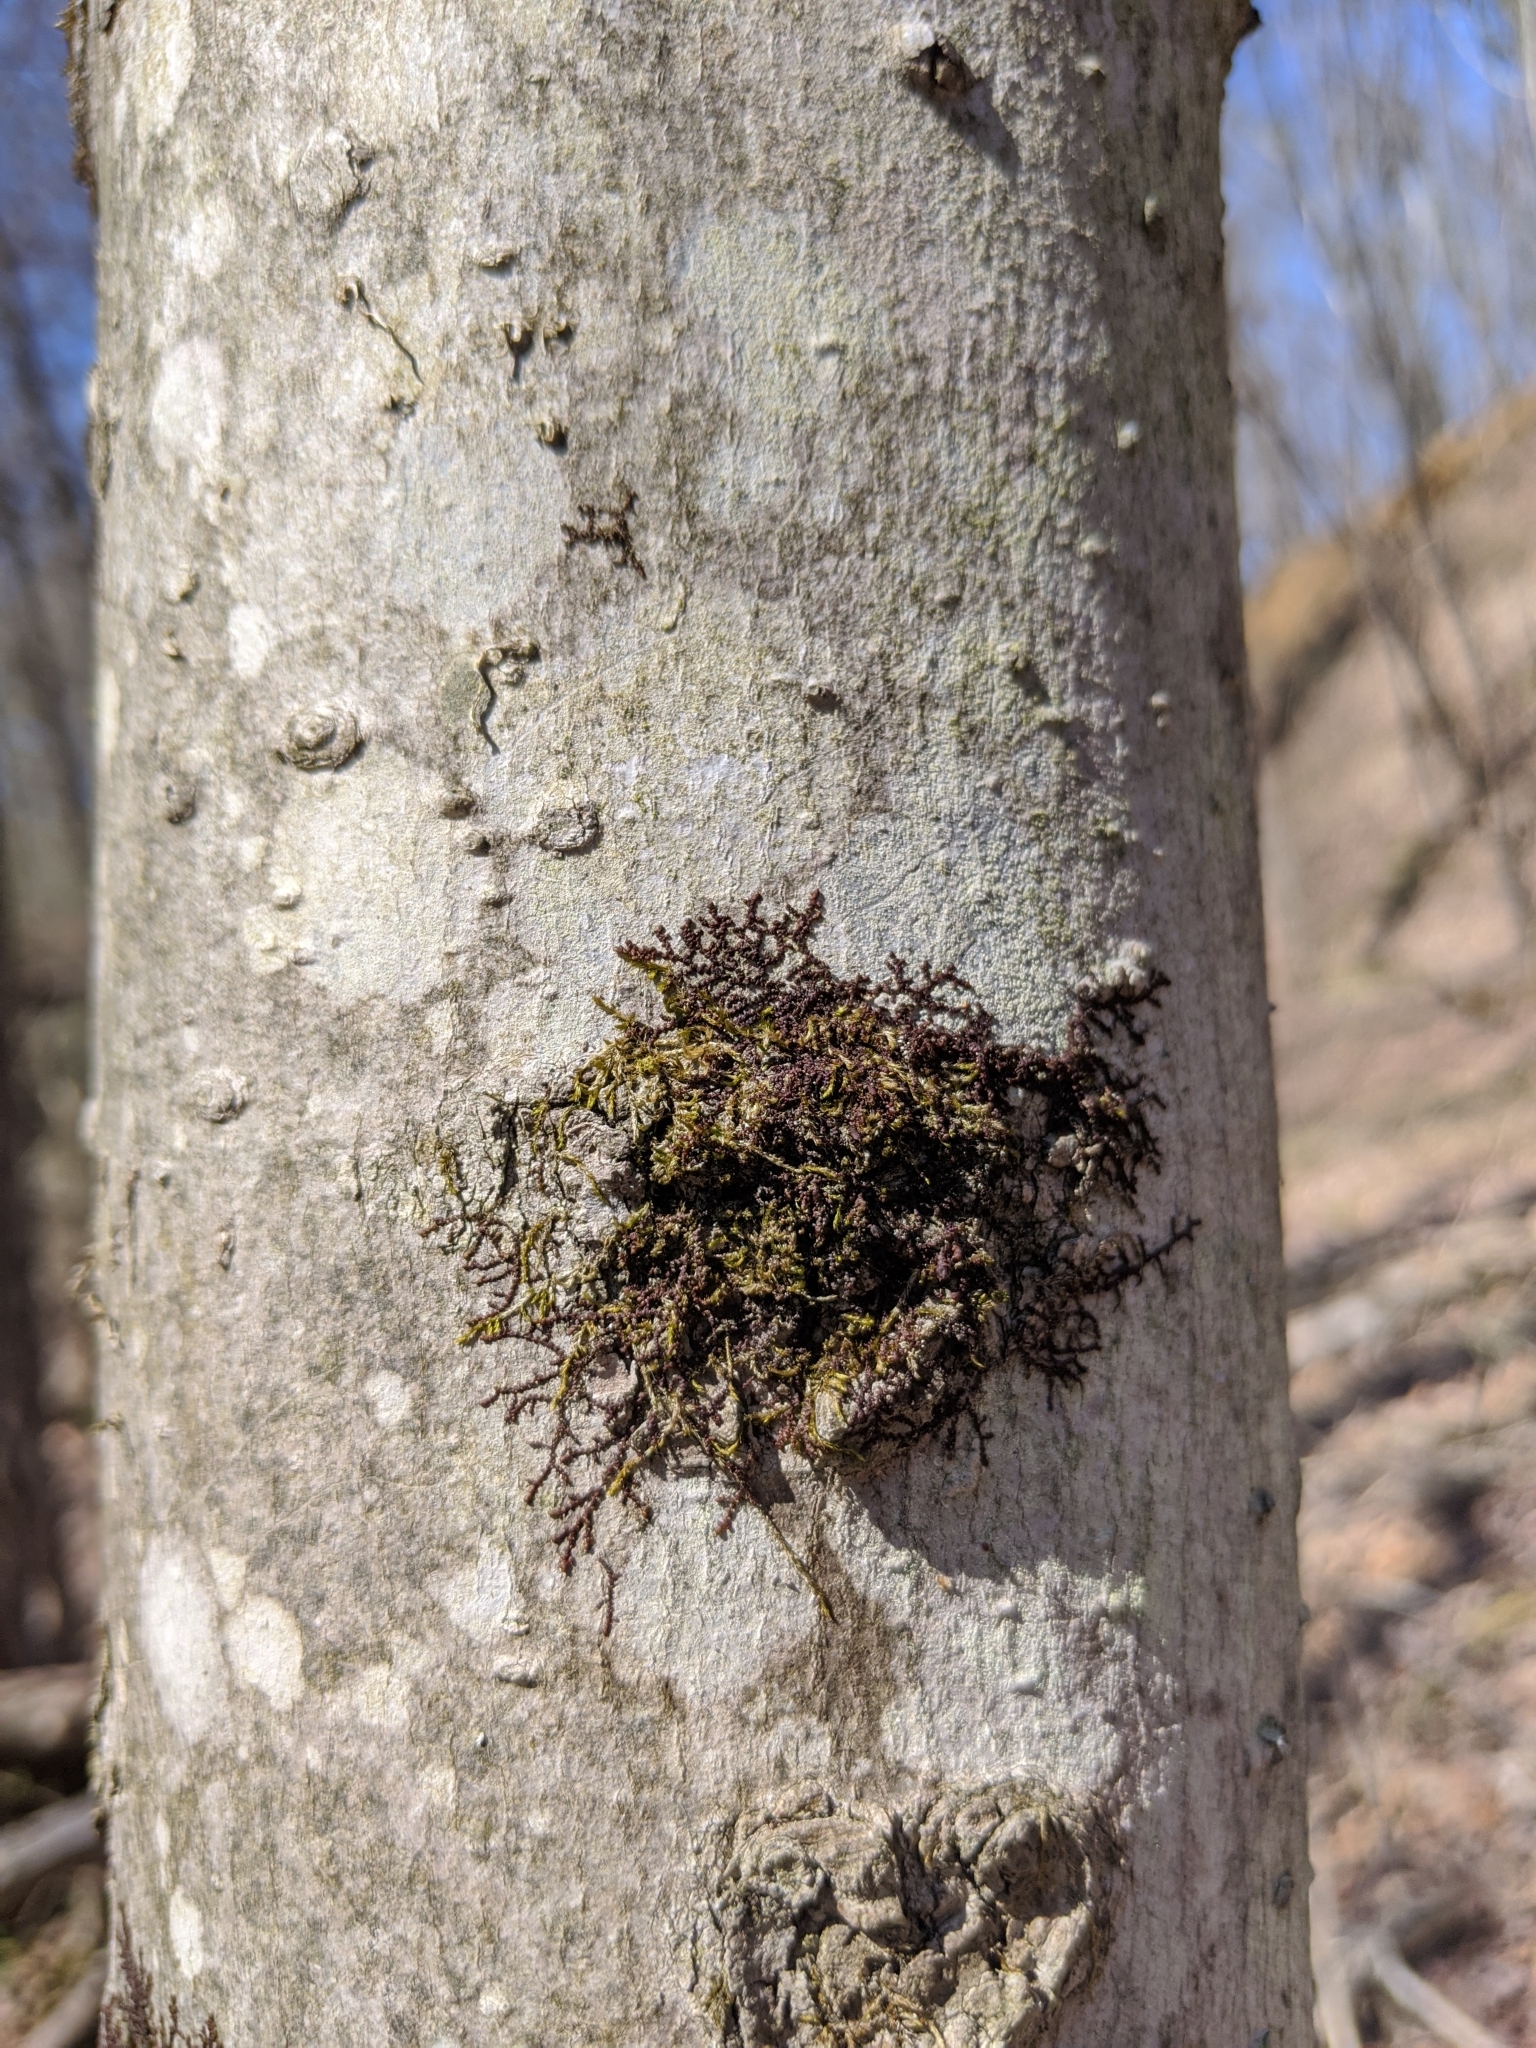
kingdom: Plantae
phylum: Marchantiophyta
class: Jungermanniopsida
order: Porellales
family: Frullaniaceae
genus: Frullania
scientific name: Frullania eboracensis
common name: New york scalewort
